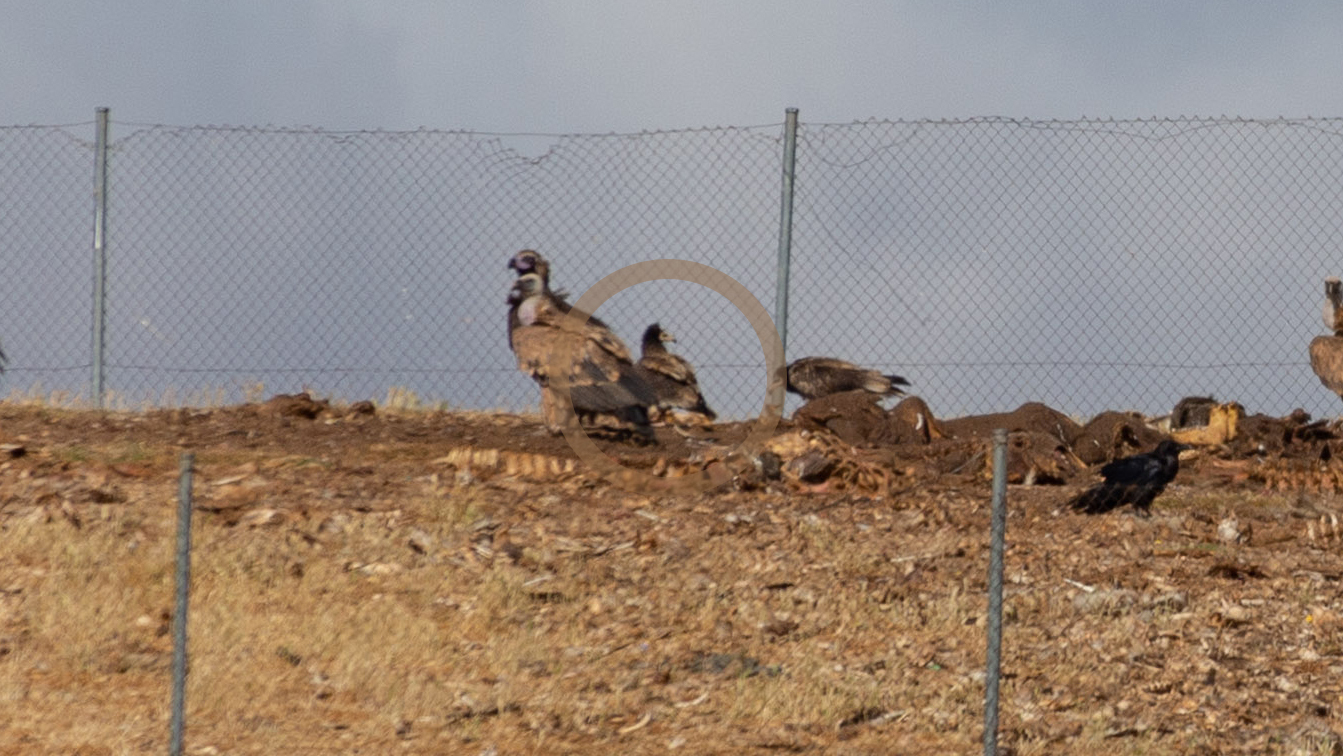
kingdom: Animalia
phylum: Chordata
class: Aves
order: Accipitriformes
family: Accipitridae
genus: Neophron
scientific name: Neophron percnopterus
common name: Egyptian vulture
